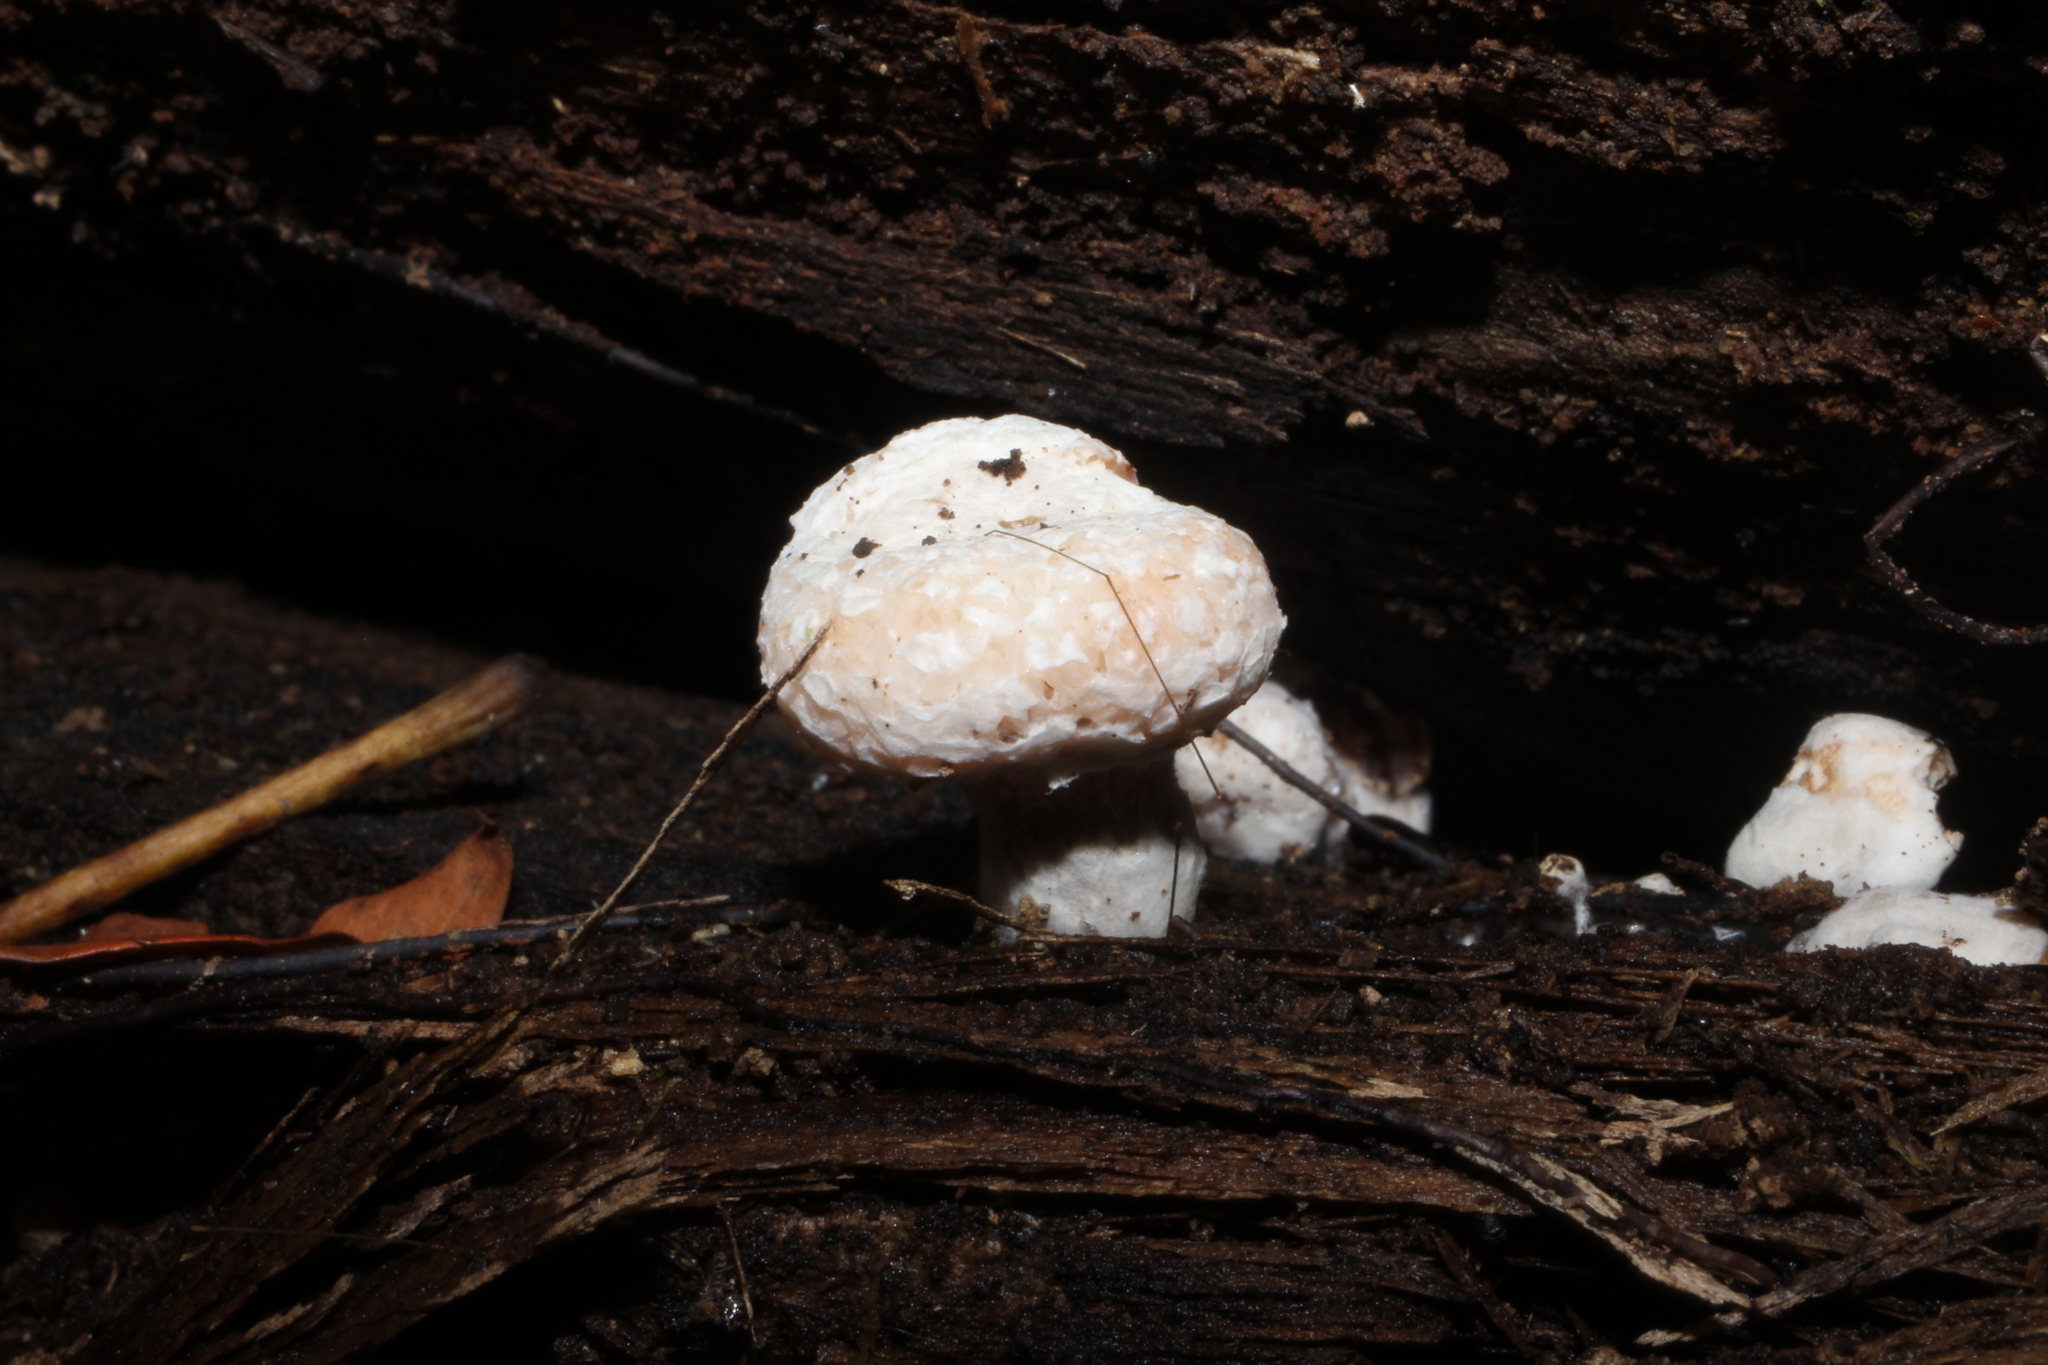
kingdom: Fungi
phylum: Basidiomycota
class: Agaricomycetes
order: Agaricales
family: Entolomataceae
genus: Entoloma
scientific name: Entoloma abortivum
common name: Aborted entoloma
